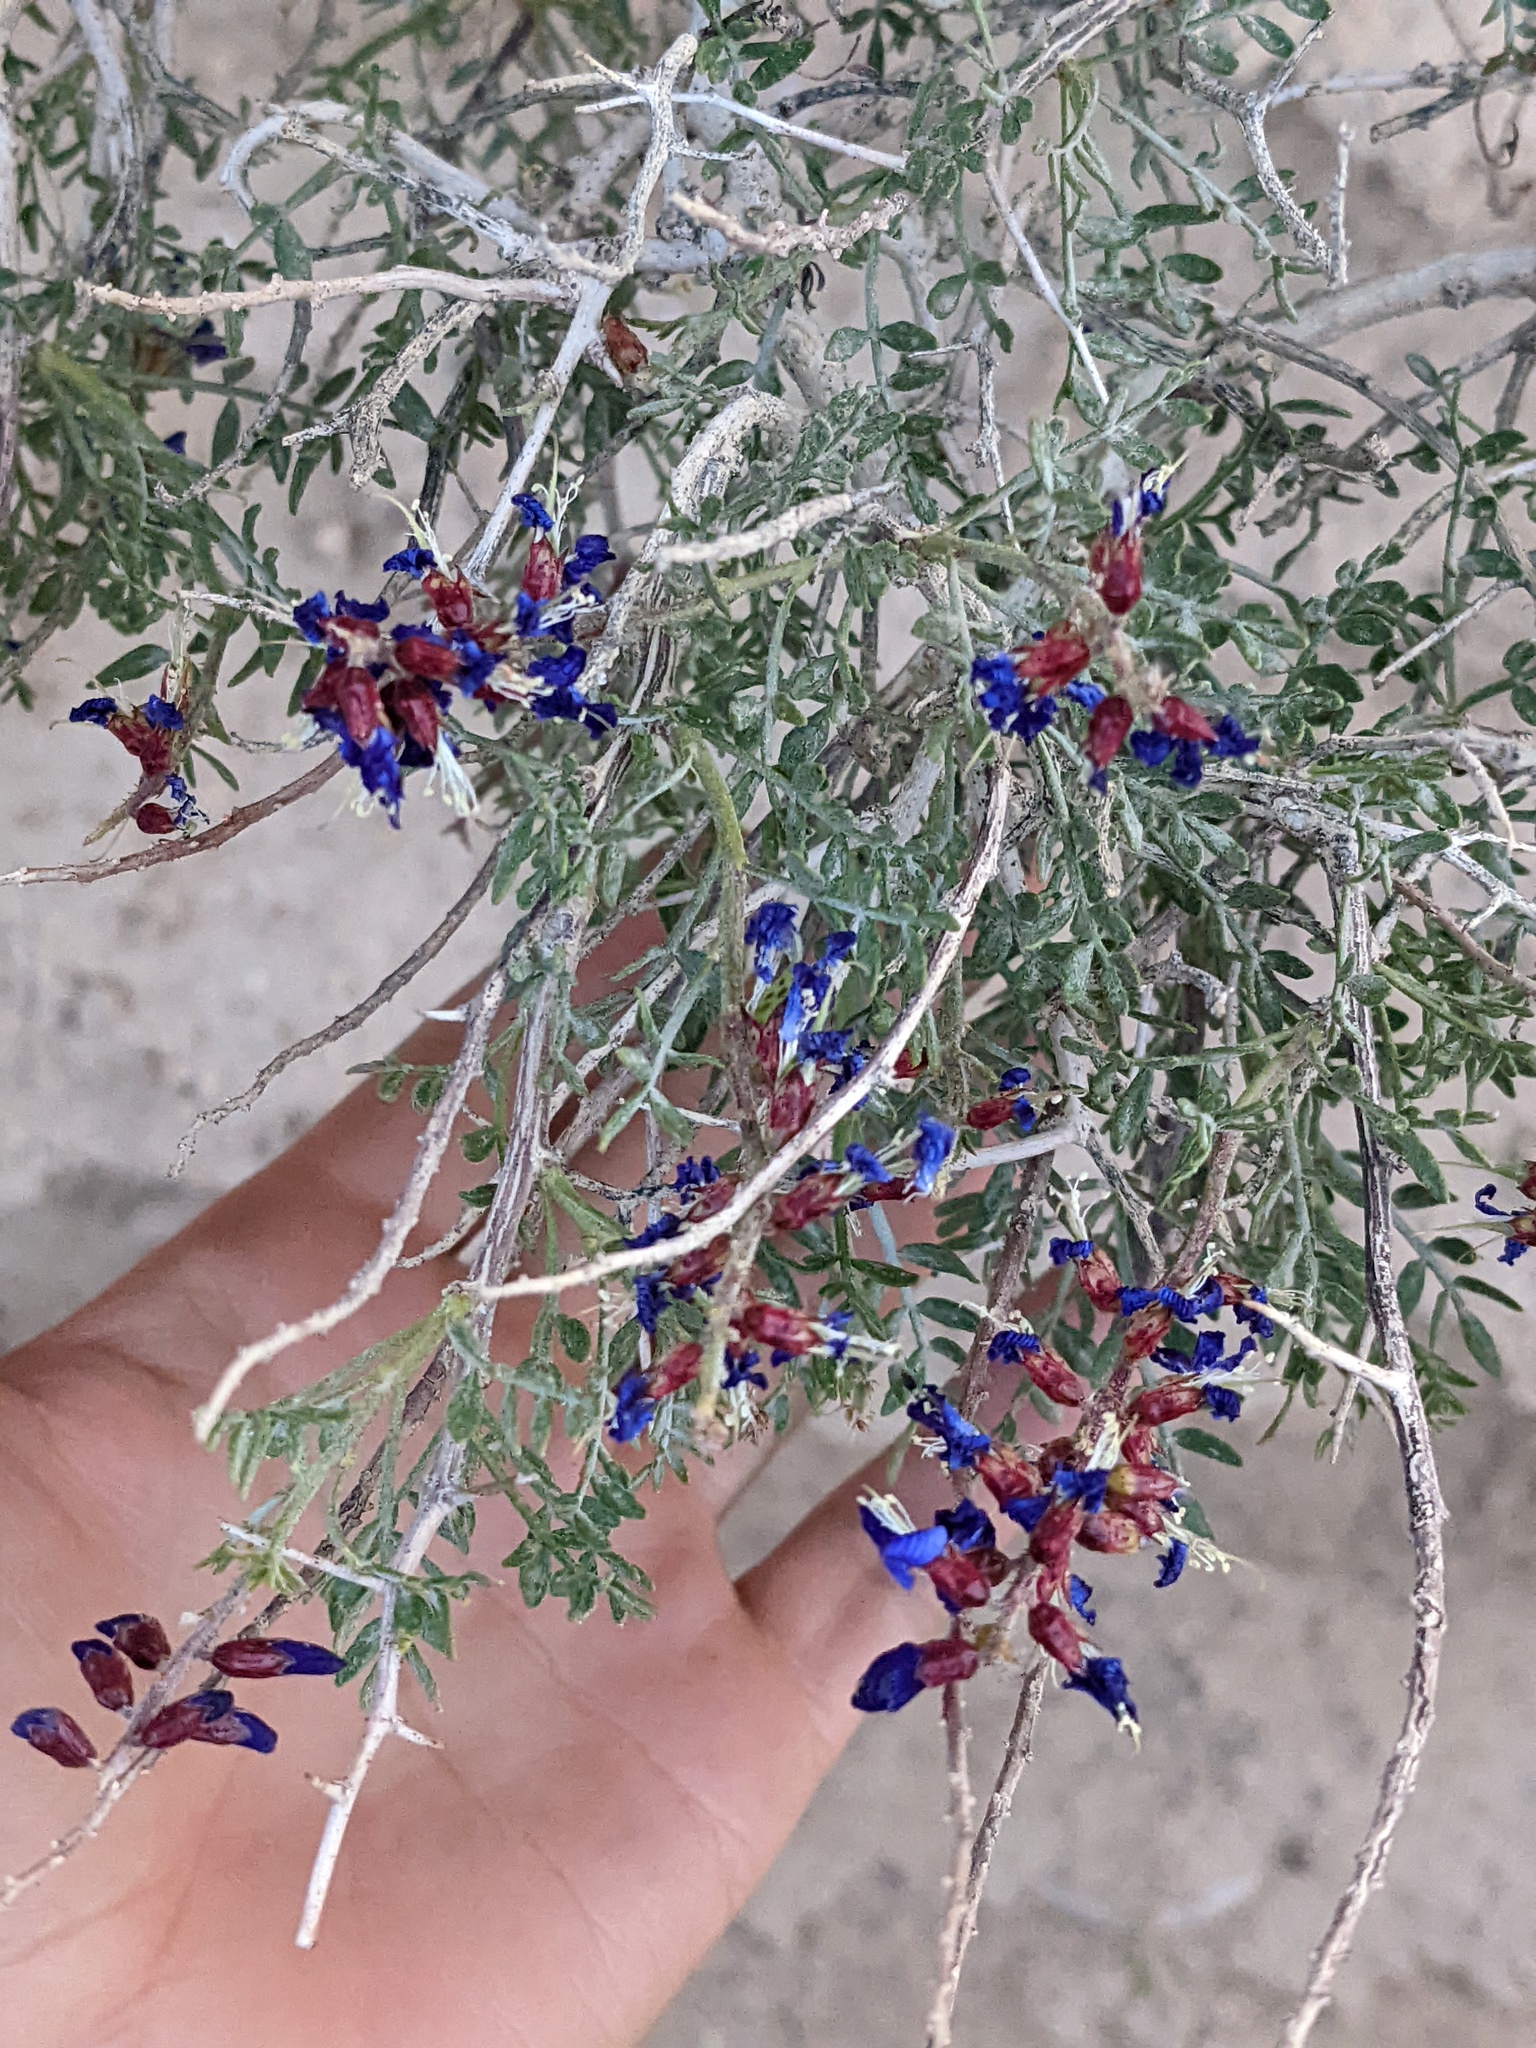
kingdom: Plantae
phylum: Tracheophyta
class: Magnoliopsida
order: Fabales
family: Fabaceae
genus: Psorothamnus
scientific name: Psorothamnus arborescens
